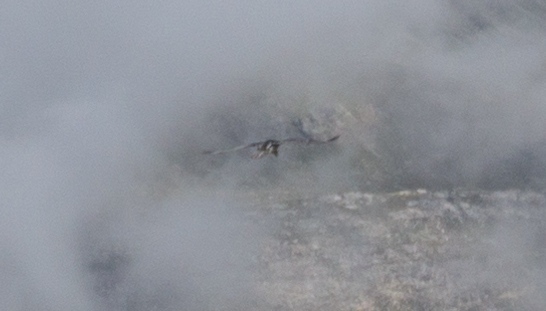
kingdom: Animalia
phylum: Chordata
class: Aves
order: Accipitriformes
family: Accipitridae
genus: Gypaetus
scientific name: Gypaetus barbatus
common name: Bearded vulture
